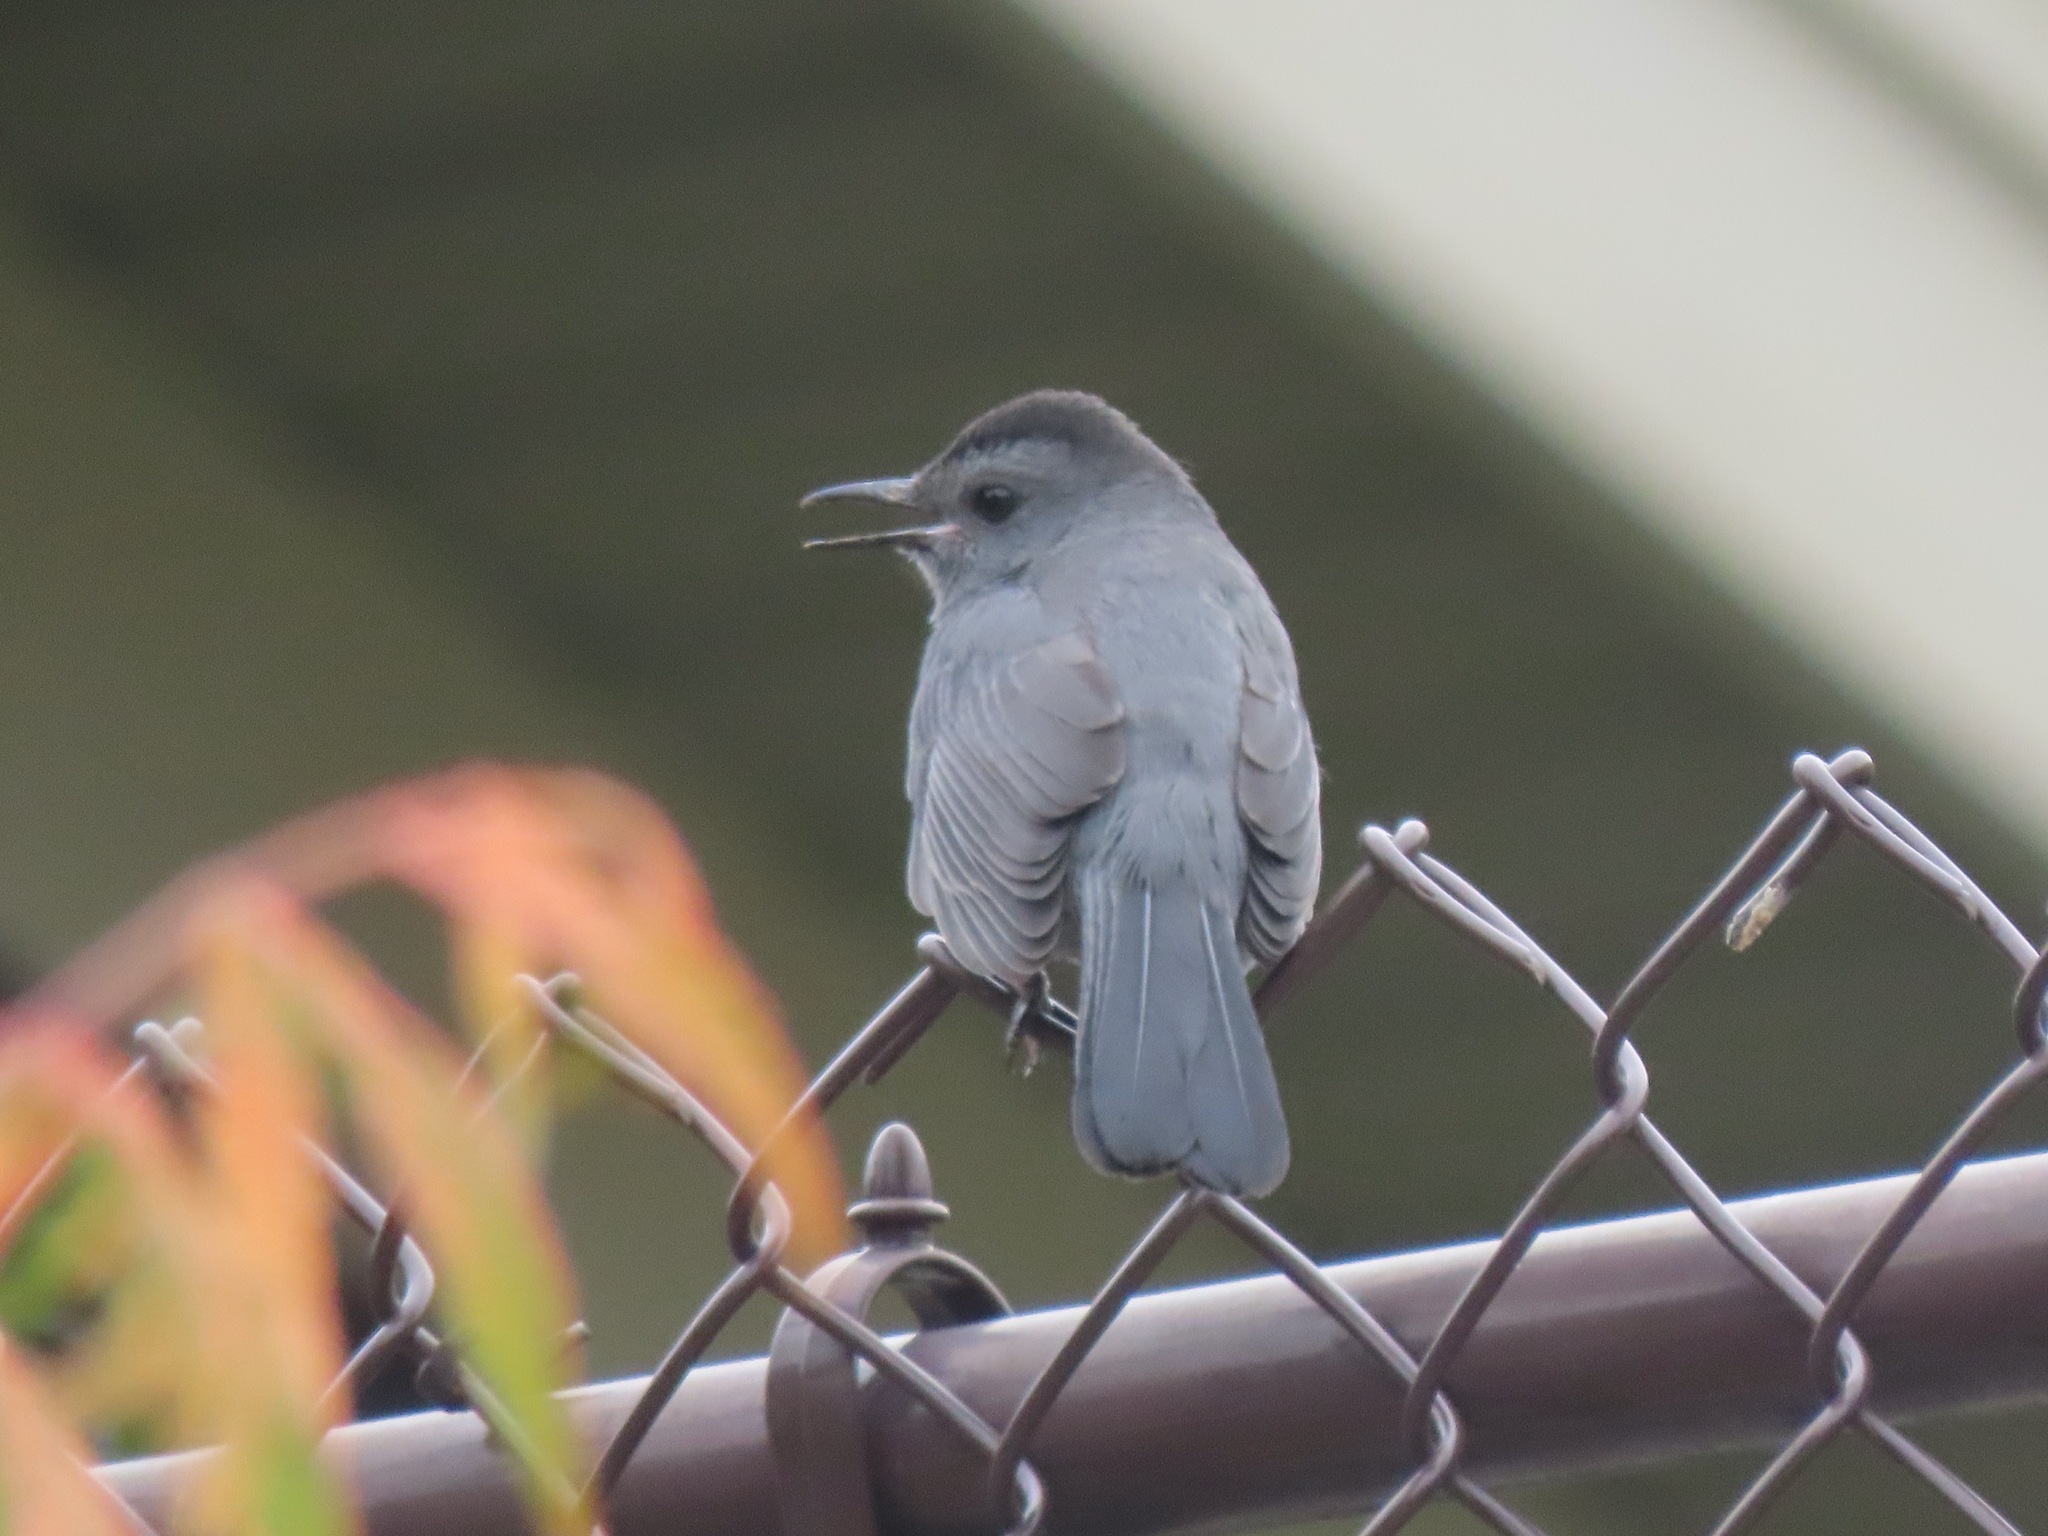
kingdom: Animalia
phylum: Chordata
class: Aves
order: Passeriformes
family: Mimidae
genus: Dumetella
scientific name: Dumetella carolinensis
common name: Gray catbird
